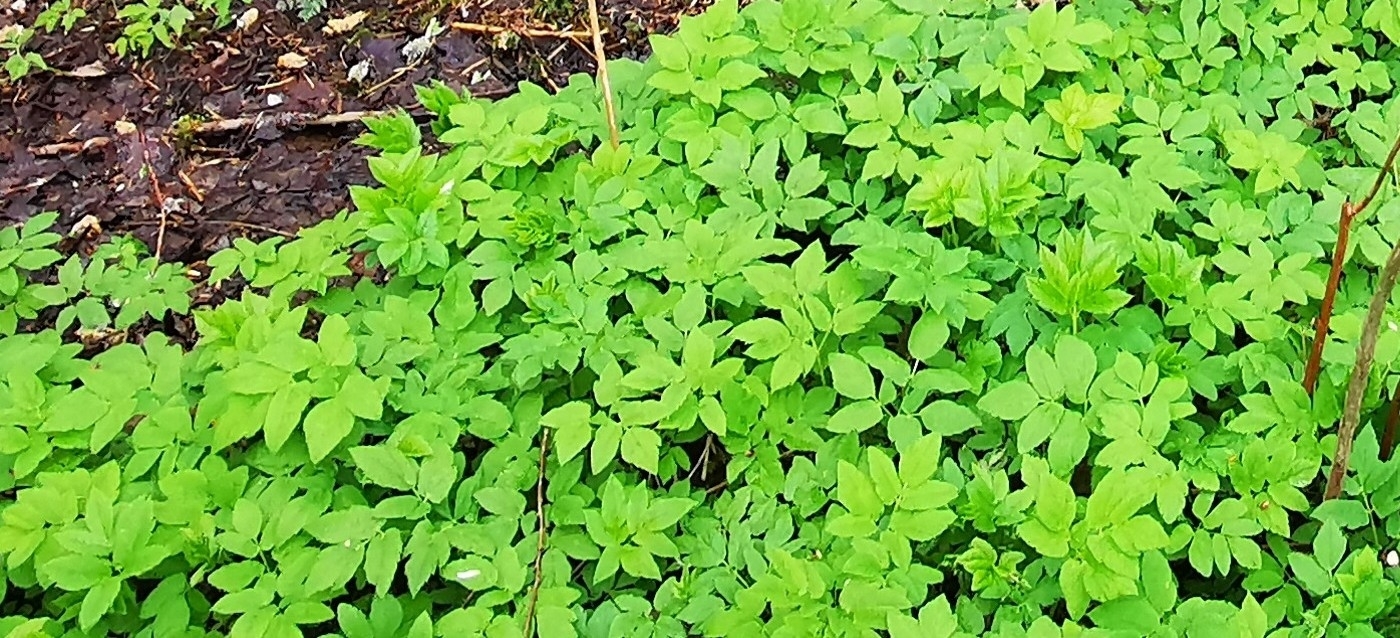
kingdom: Plantae
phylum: Tracheophyta
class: Magnoliopsida
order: Apiales
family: Apiaceae
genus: Aegopodium
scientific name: Aegopodium podagraria
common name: Ground-elder
